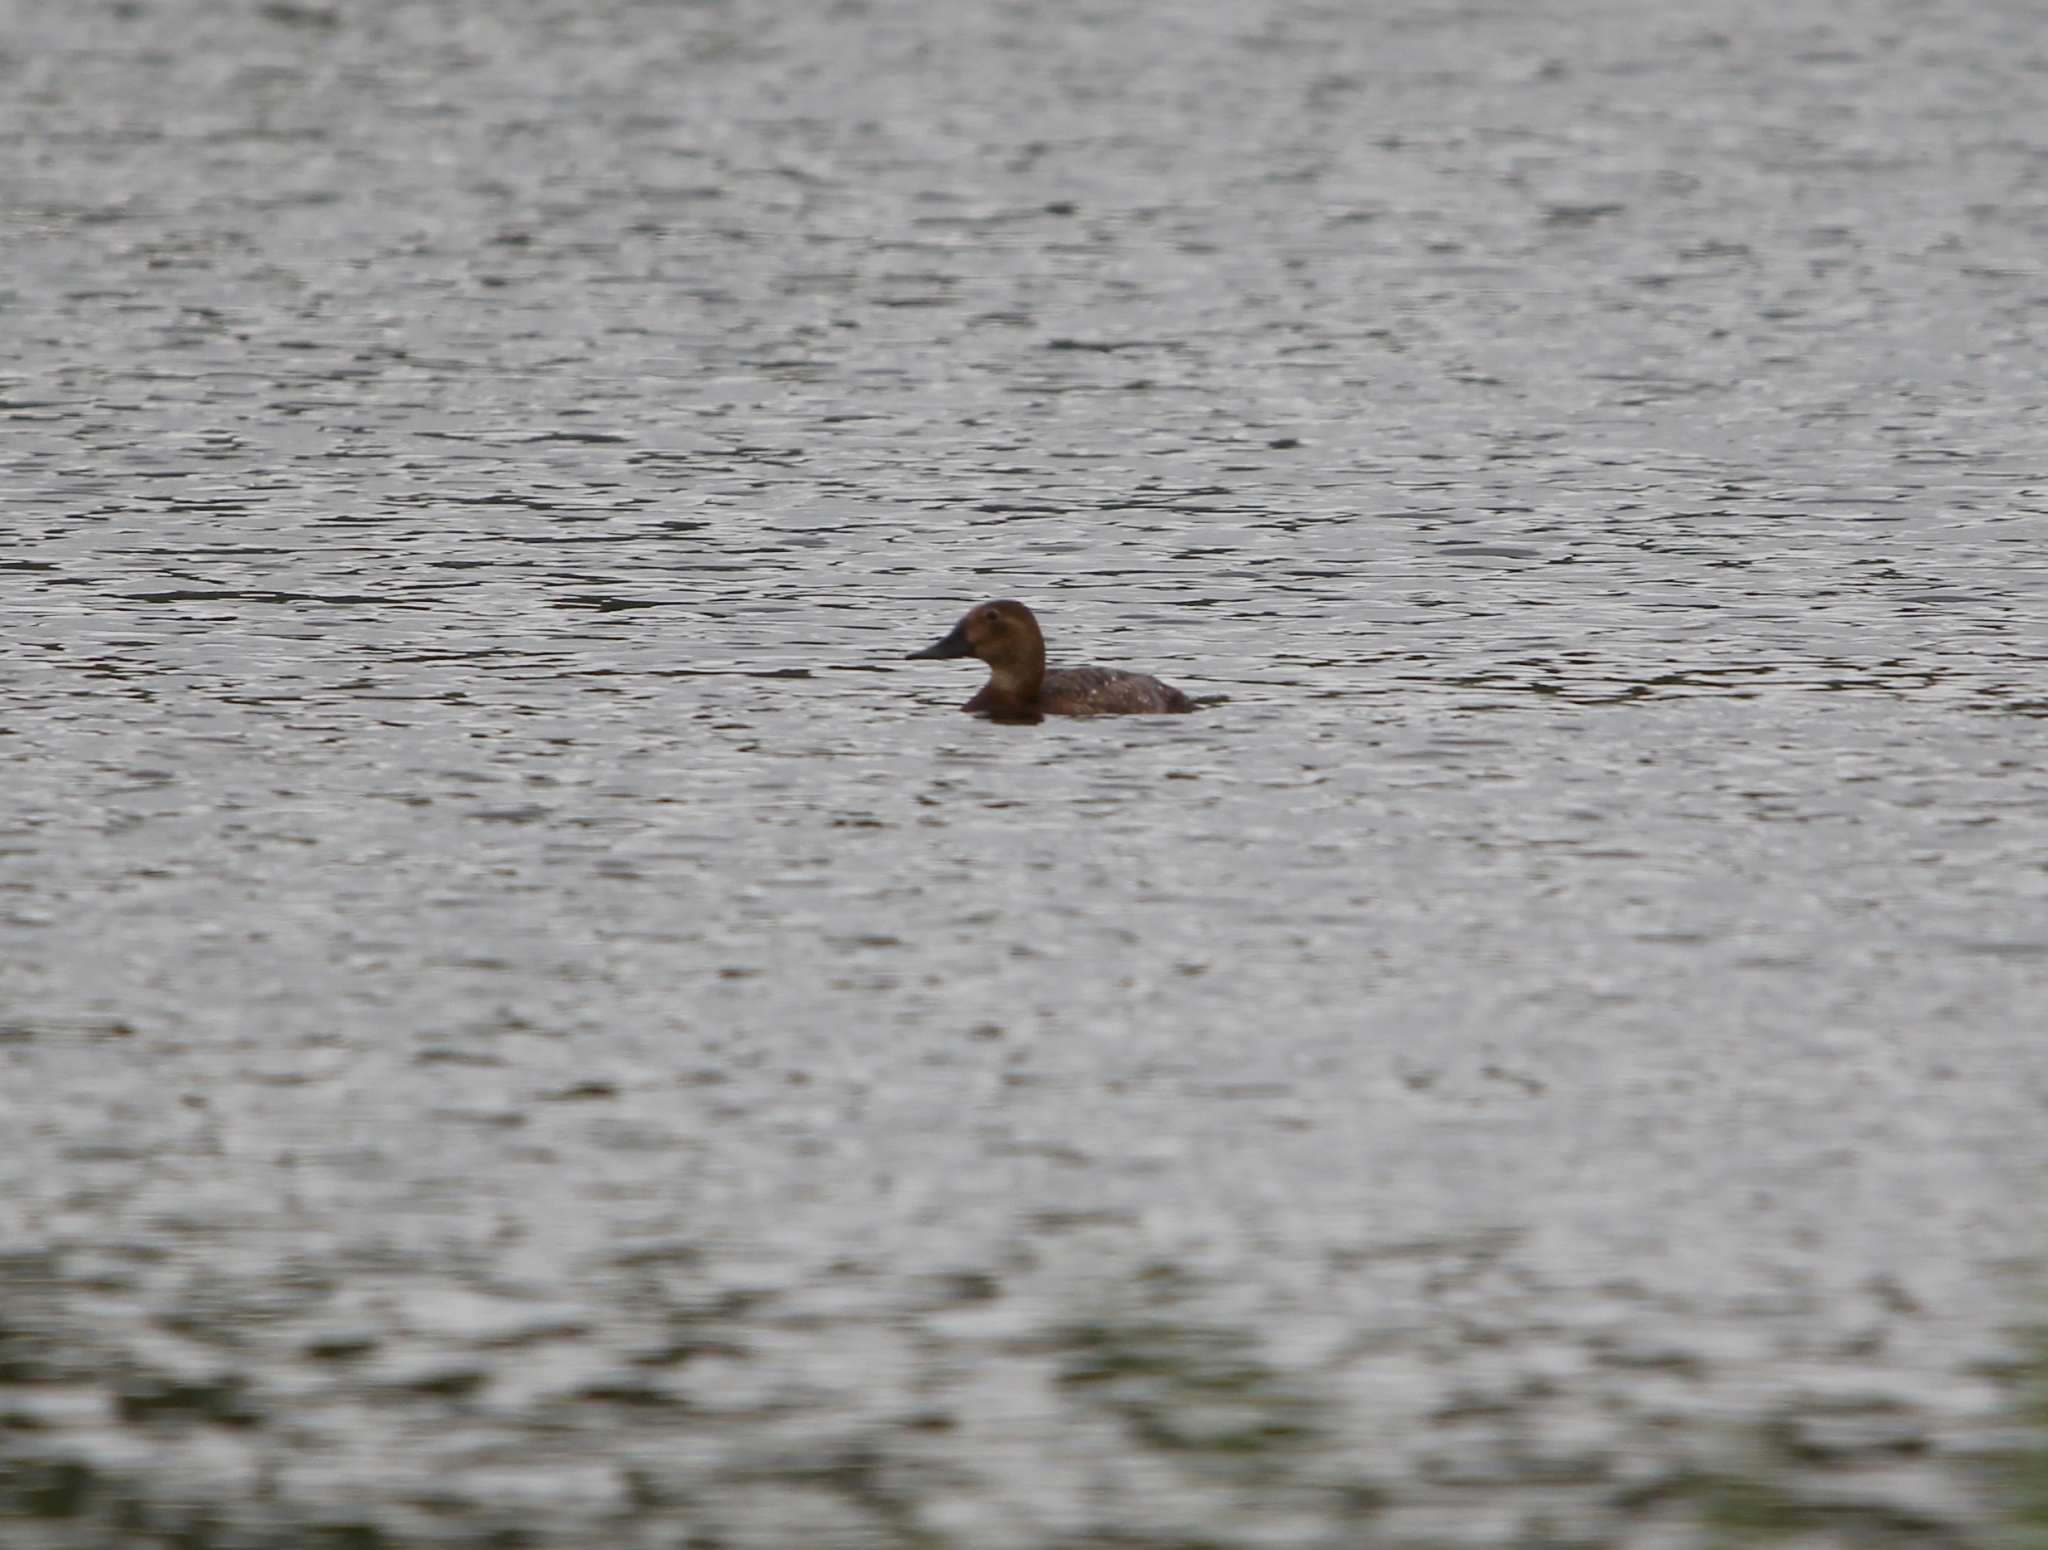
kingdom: Animalia
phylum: Chordata
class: Aves
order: Anseriformes
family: Anatidae
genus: Aythya
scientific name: Aythya ferina
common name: Common pochard
